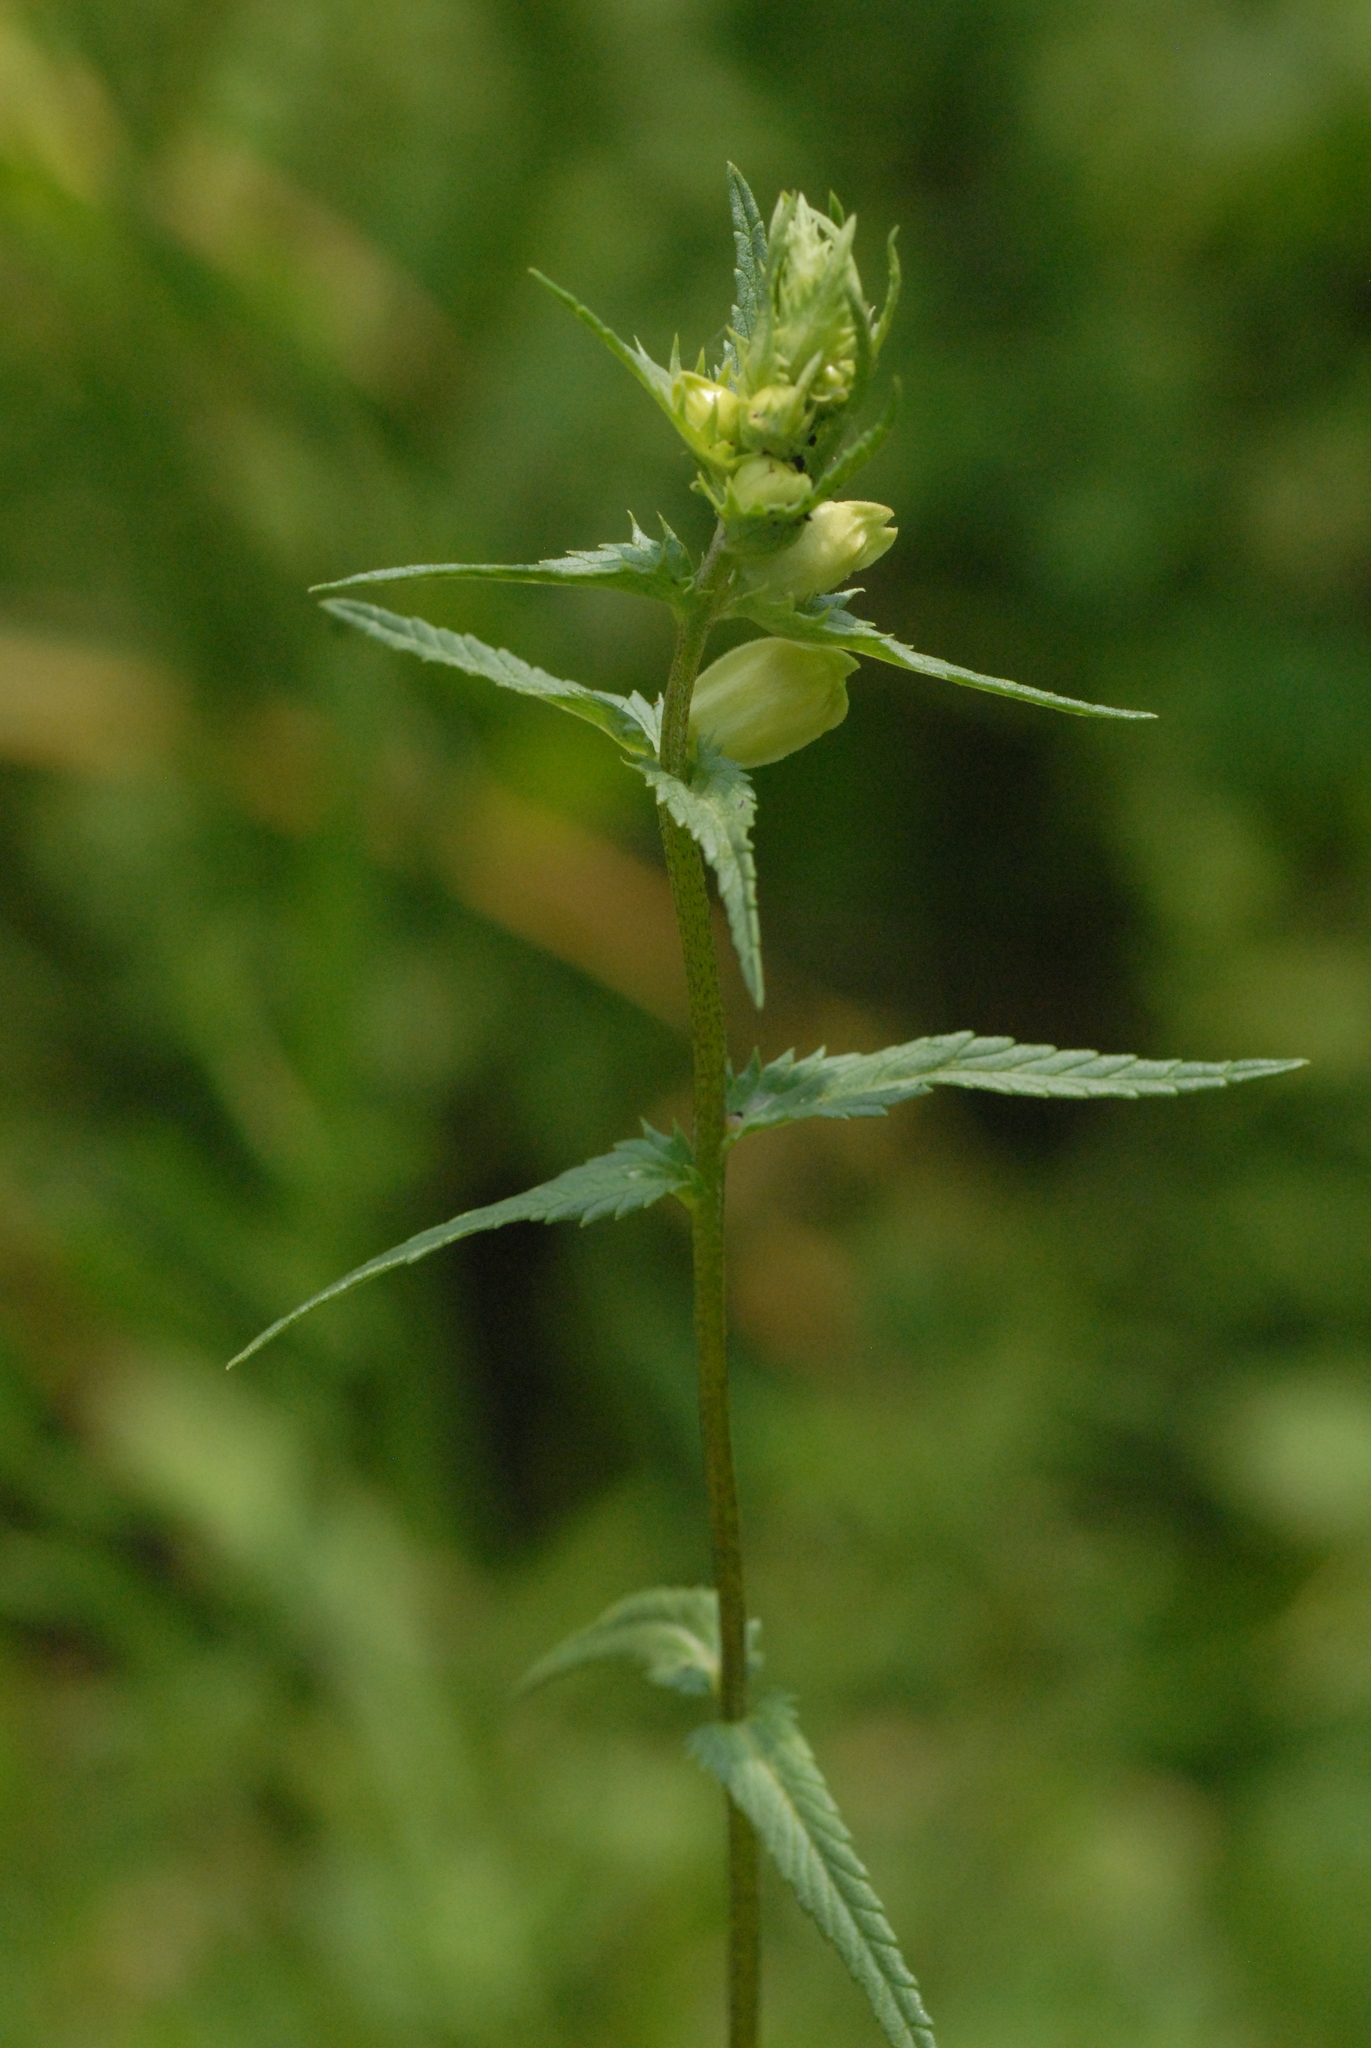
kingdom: Plantae
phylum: Tracheophyta
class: Magnoliopsida
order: Lamiales
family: Orobanchaceae
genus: Rhinanthus
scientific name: Rhinanthus minor
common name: Yellow-rattle
